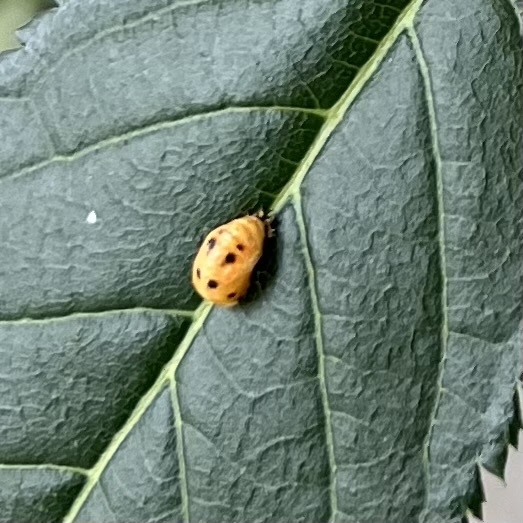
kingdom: Animalia
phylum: Arthropoda
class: Insecta
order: Coleoptera
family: Coccinellidae
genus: Harmonia
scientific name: Harmonia axyridis
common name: Harlequin ladybird
